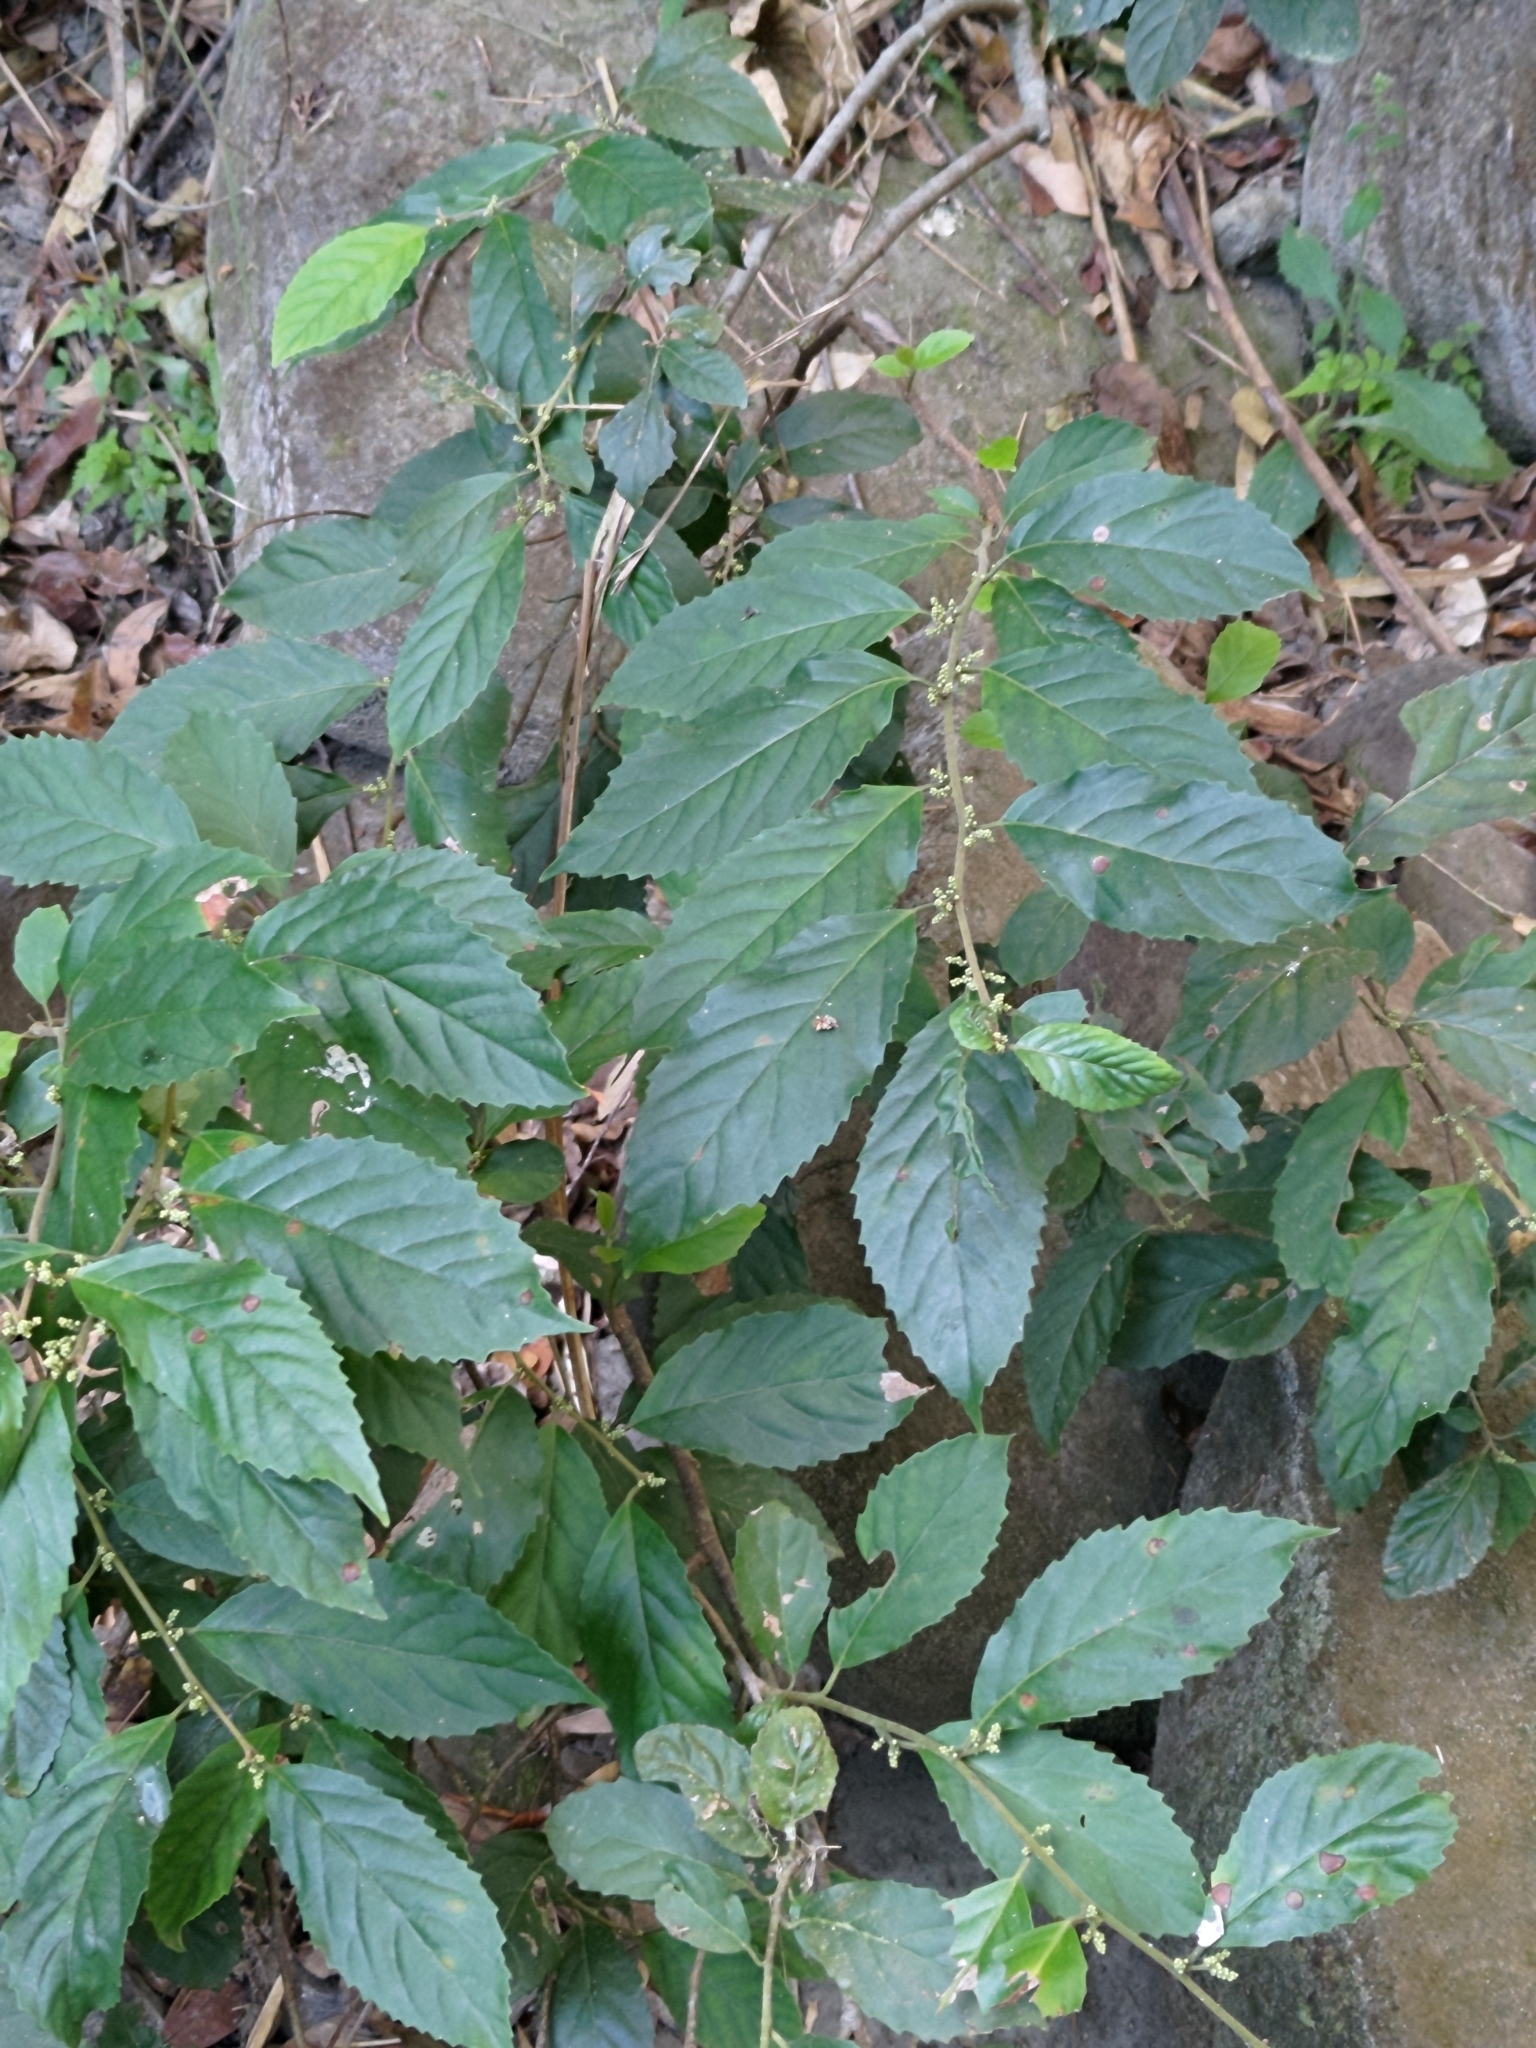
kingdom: Plantae
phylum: Tracheophyta
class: Magnoliopsida
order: Ericales
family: Primulaceae
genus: Maesa
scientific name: Maesa perlaria
